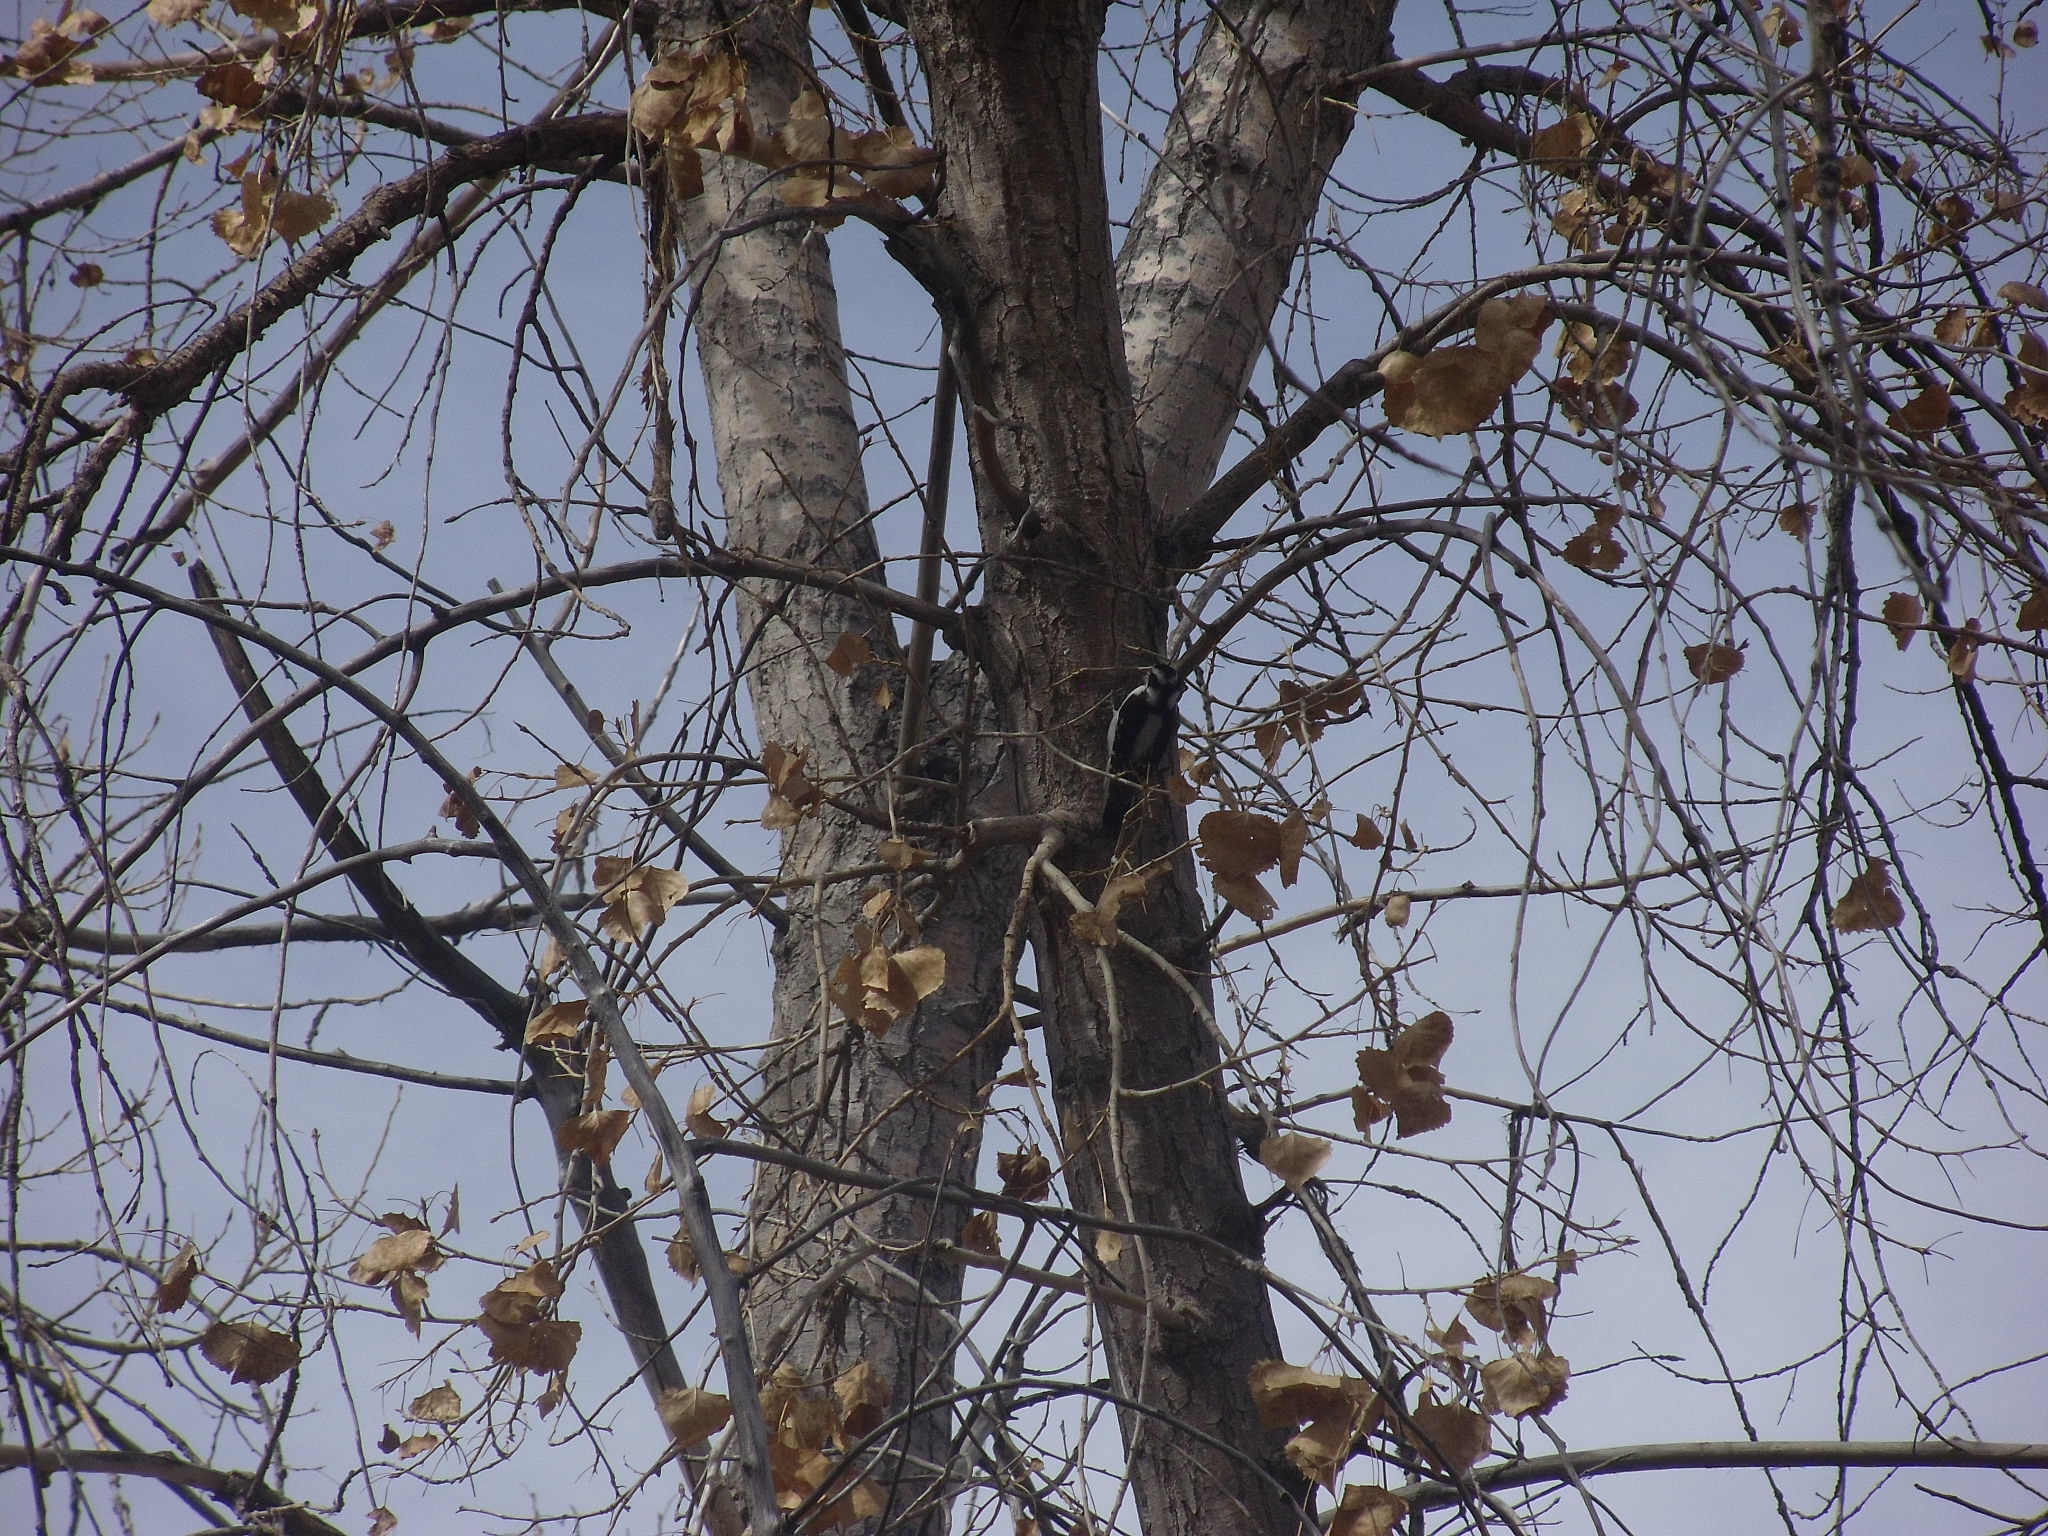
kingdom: Animalia
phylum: Chordata
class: Aves
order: Piciformes
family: Picidae
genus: Dryobates
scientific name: Dryobates pubescens
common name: Downy woodpecker
